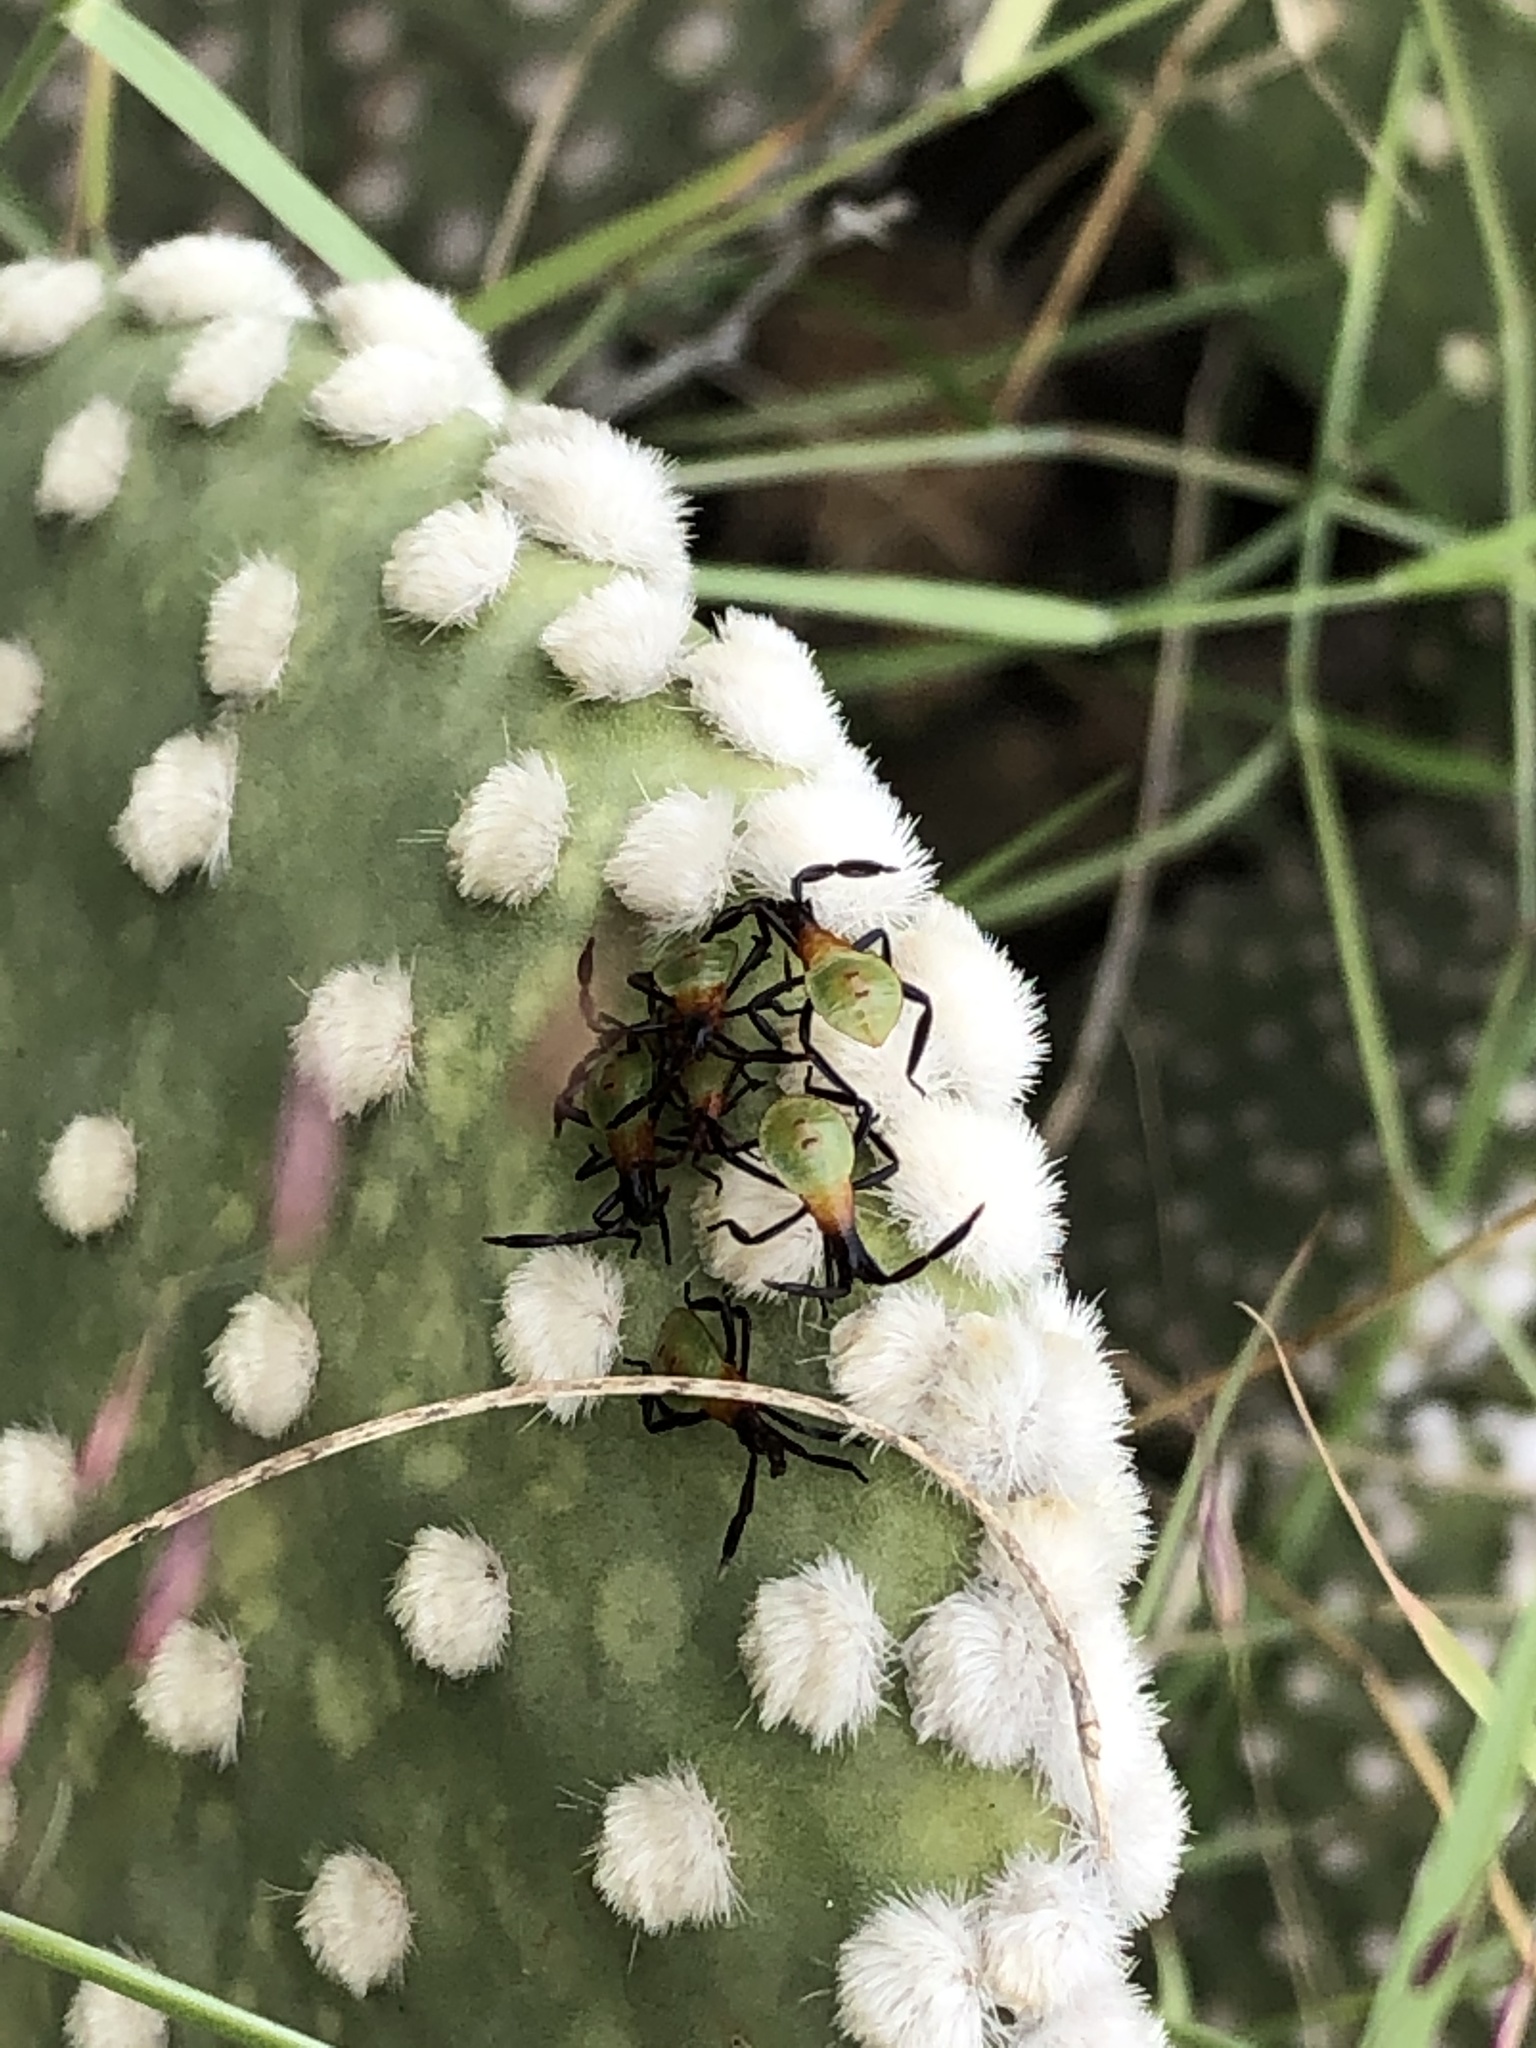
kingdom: Animalia
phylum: Arthropoda
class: Insecta
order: Hemiptera
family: Coreidae
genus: Chelinidea
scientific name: Chelinidea vittiger
